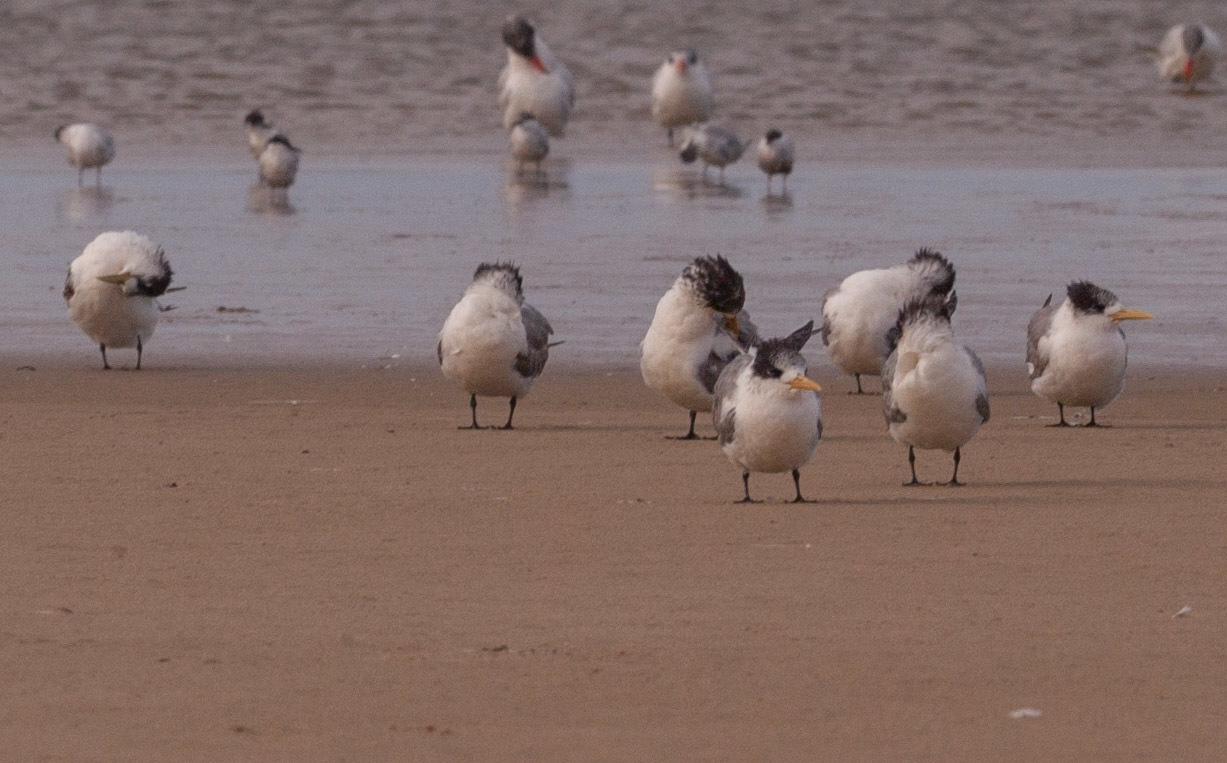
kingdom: Animalia
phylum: Chordata
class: Aves
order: Charadriiformes
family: Laridae
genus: Thalasseus
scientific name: Thalasseus bergii
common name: Greater crested tern
